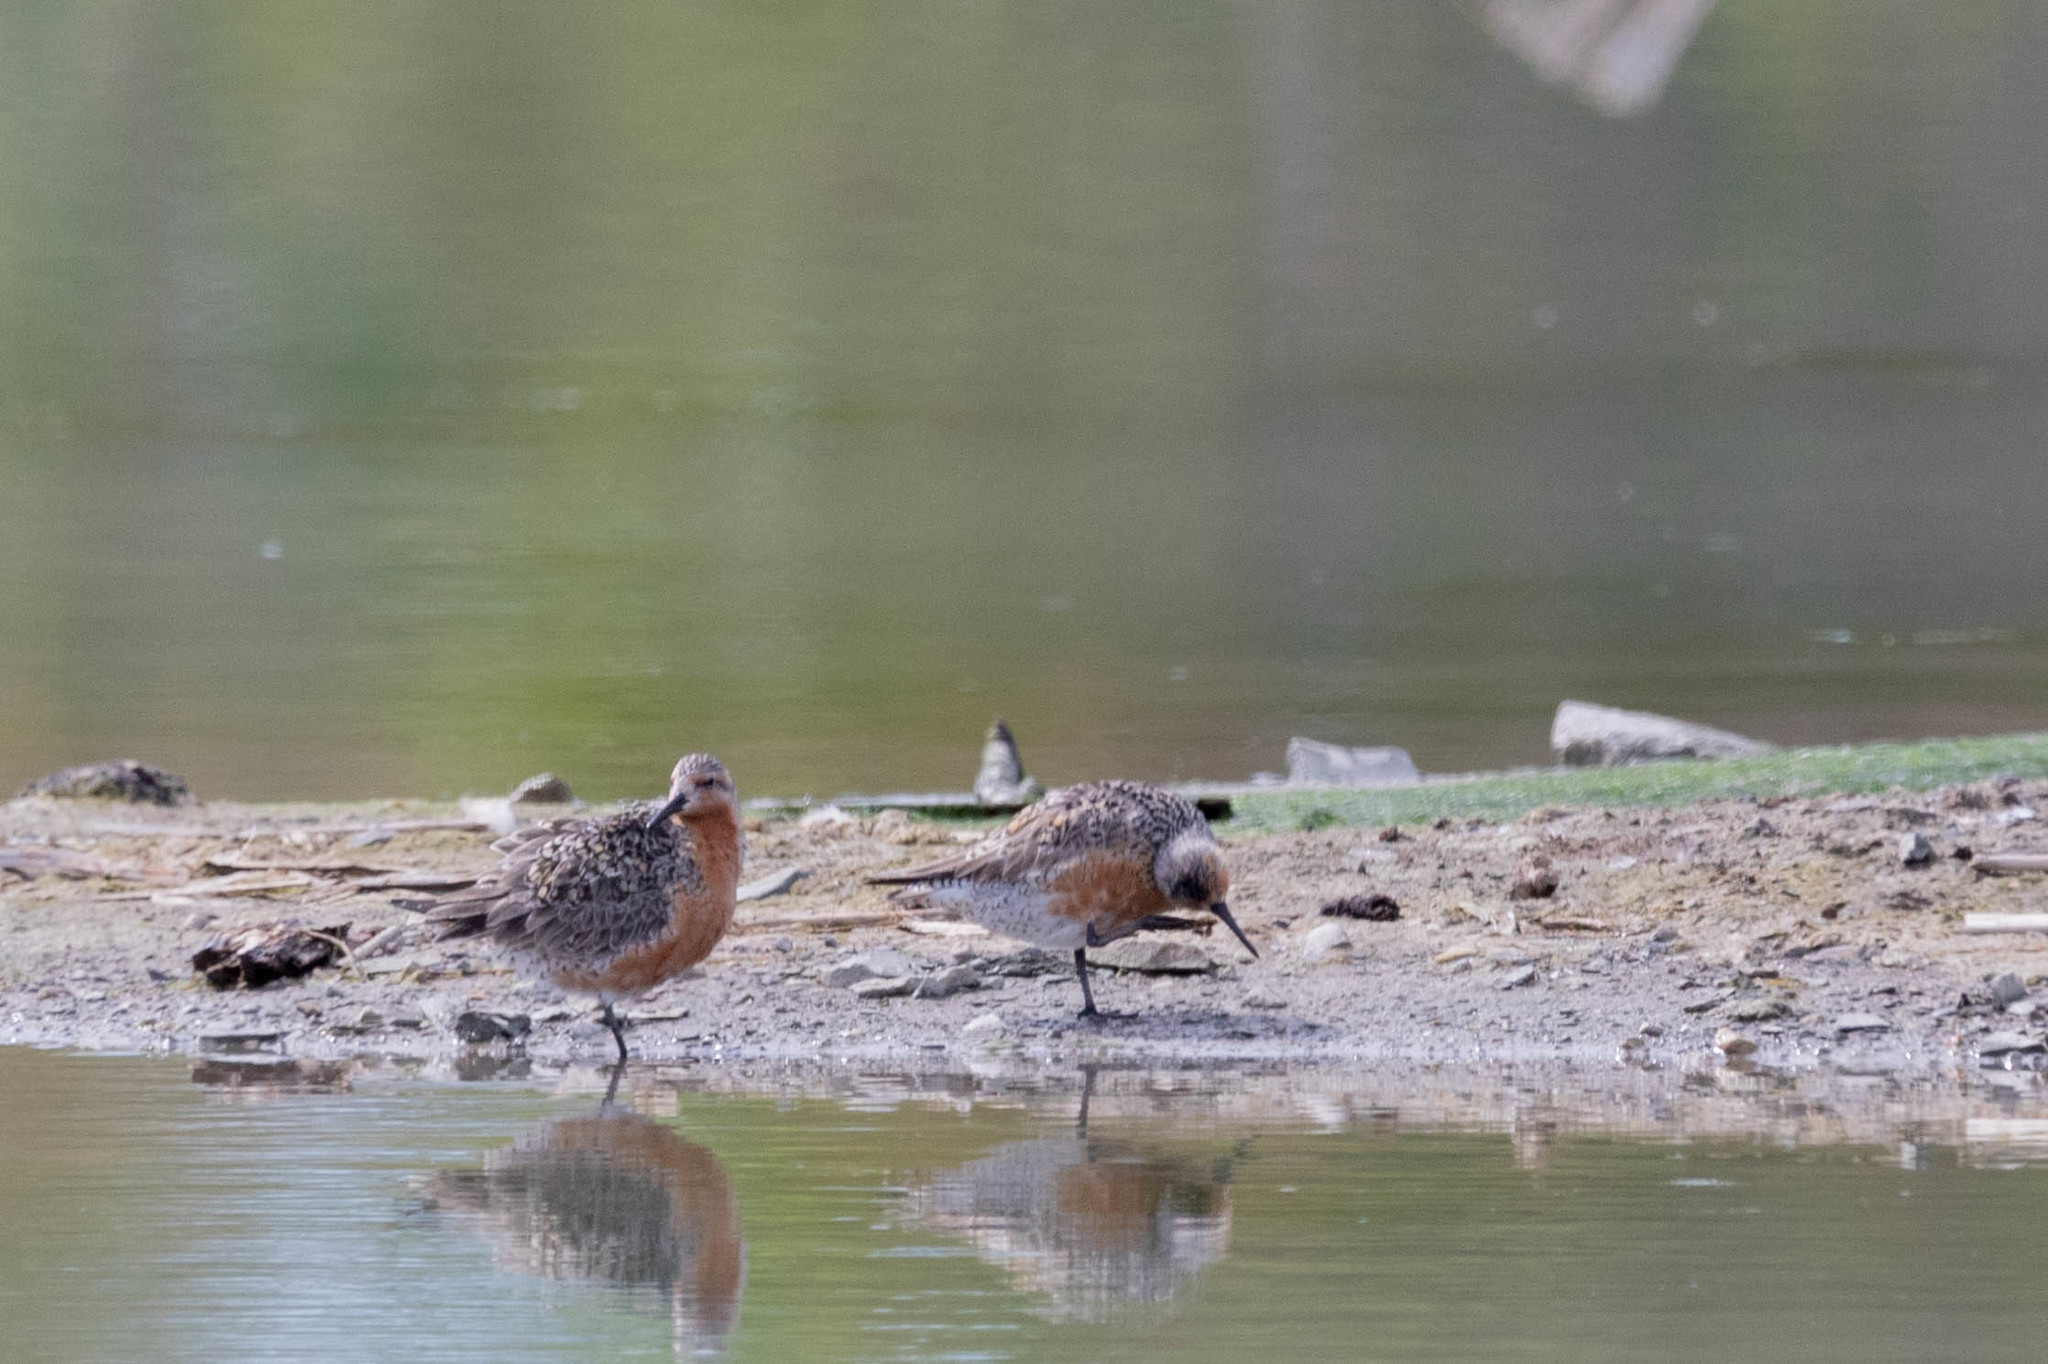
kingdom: Animalia
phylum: Chordata
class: Aves
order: Charadriiformes
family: Scolopacidae
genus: Calidris
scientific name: Calidris canutus
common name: Red knot
